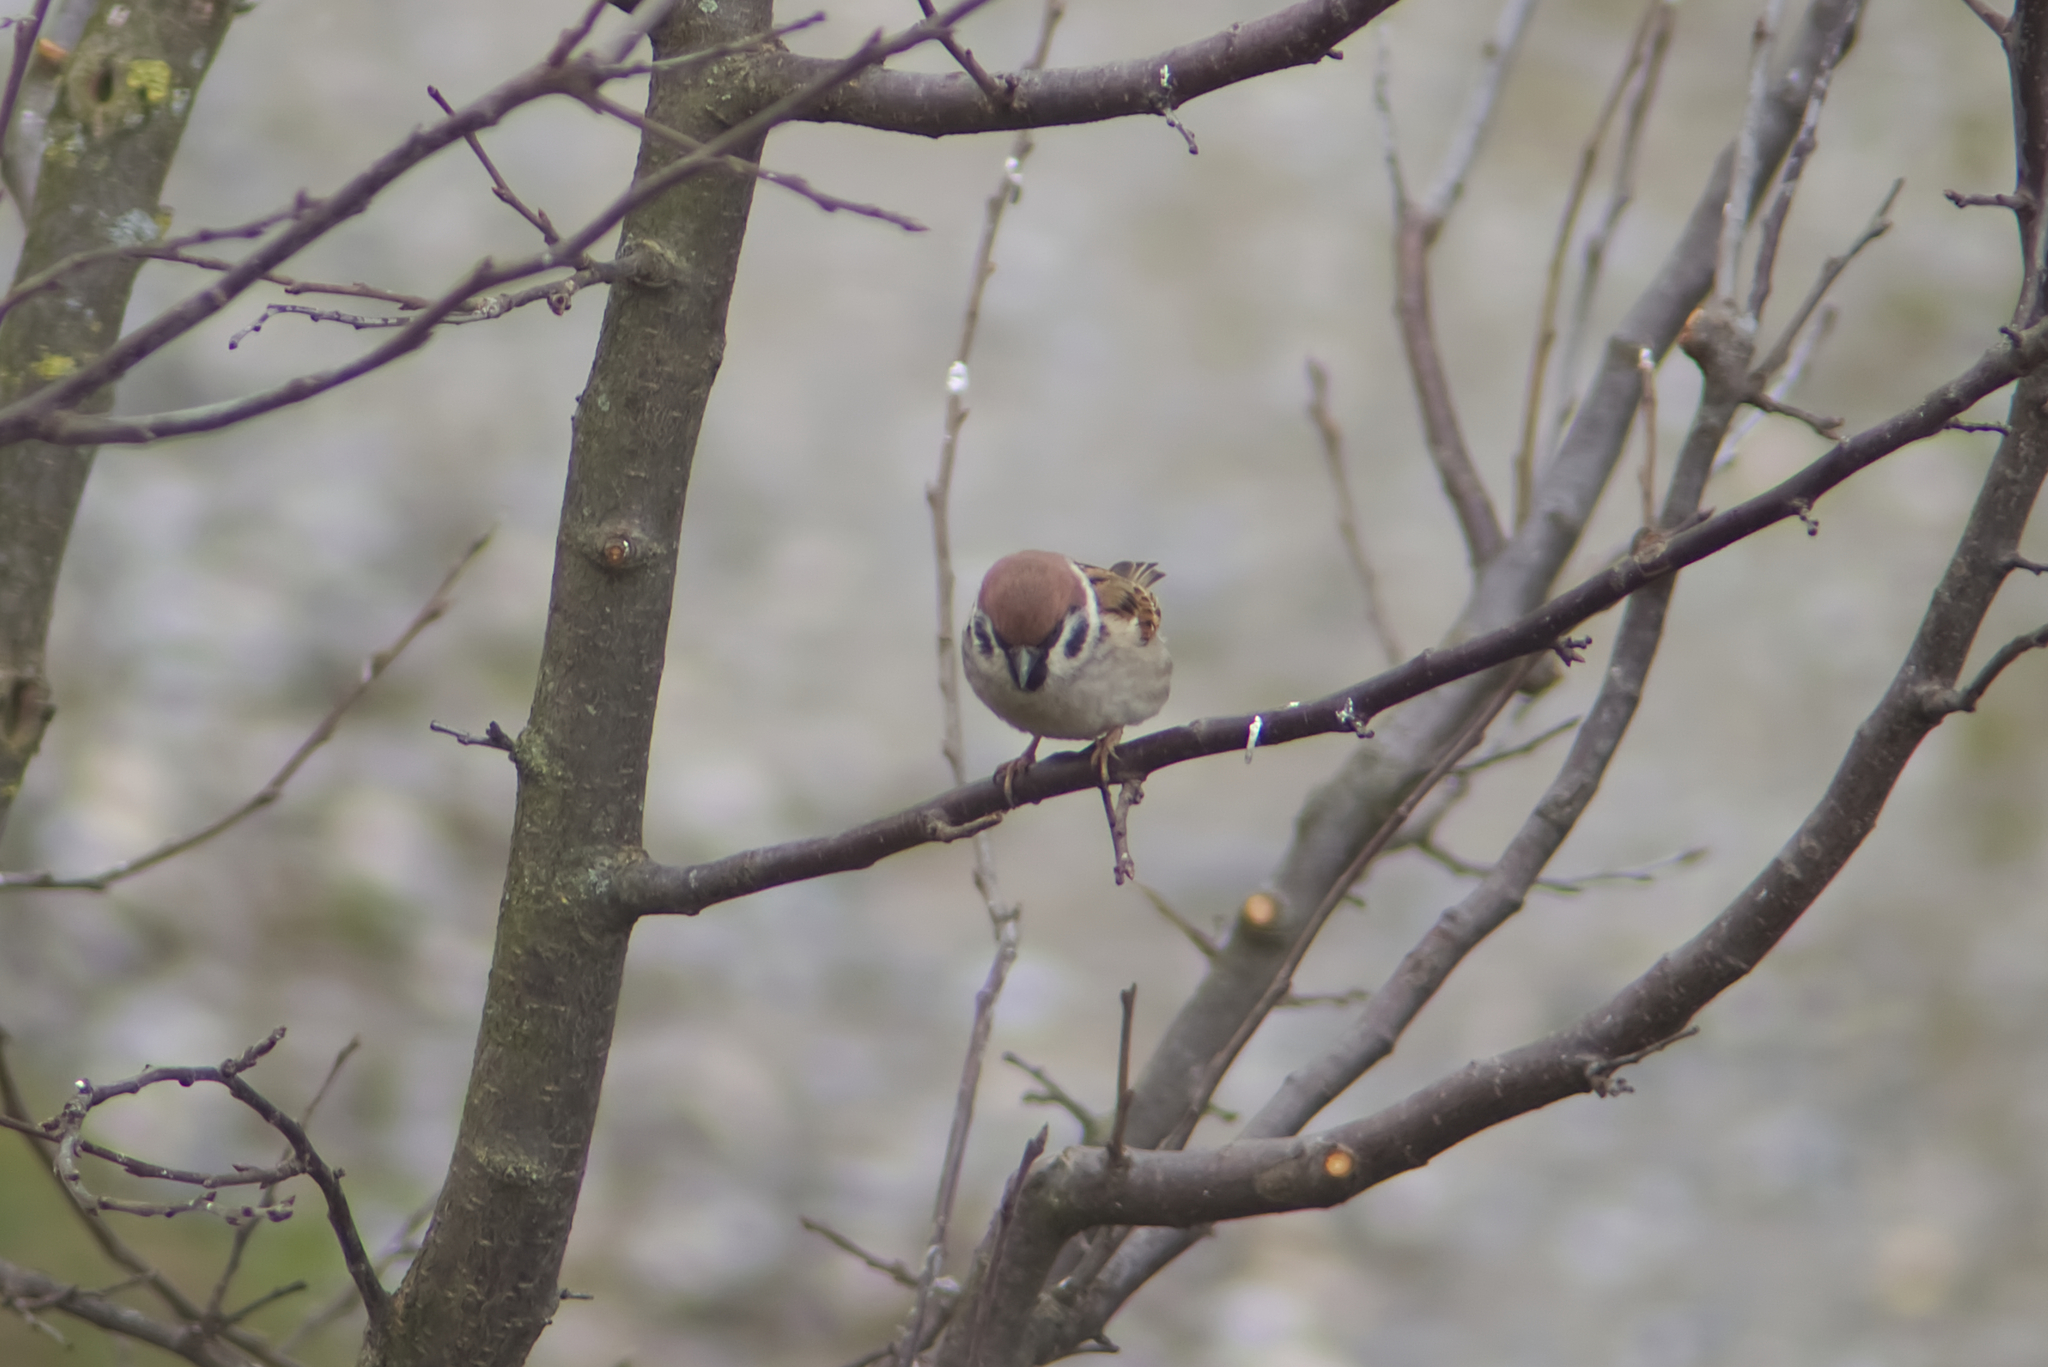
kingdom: Animalia
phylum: Chordata
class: Aves
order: Passeriformes
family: Passeridae
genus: Passer
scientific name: Passer montanus
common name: Eurasian tree sparrow
